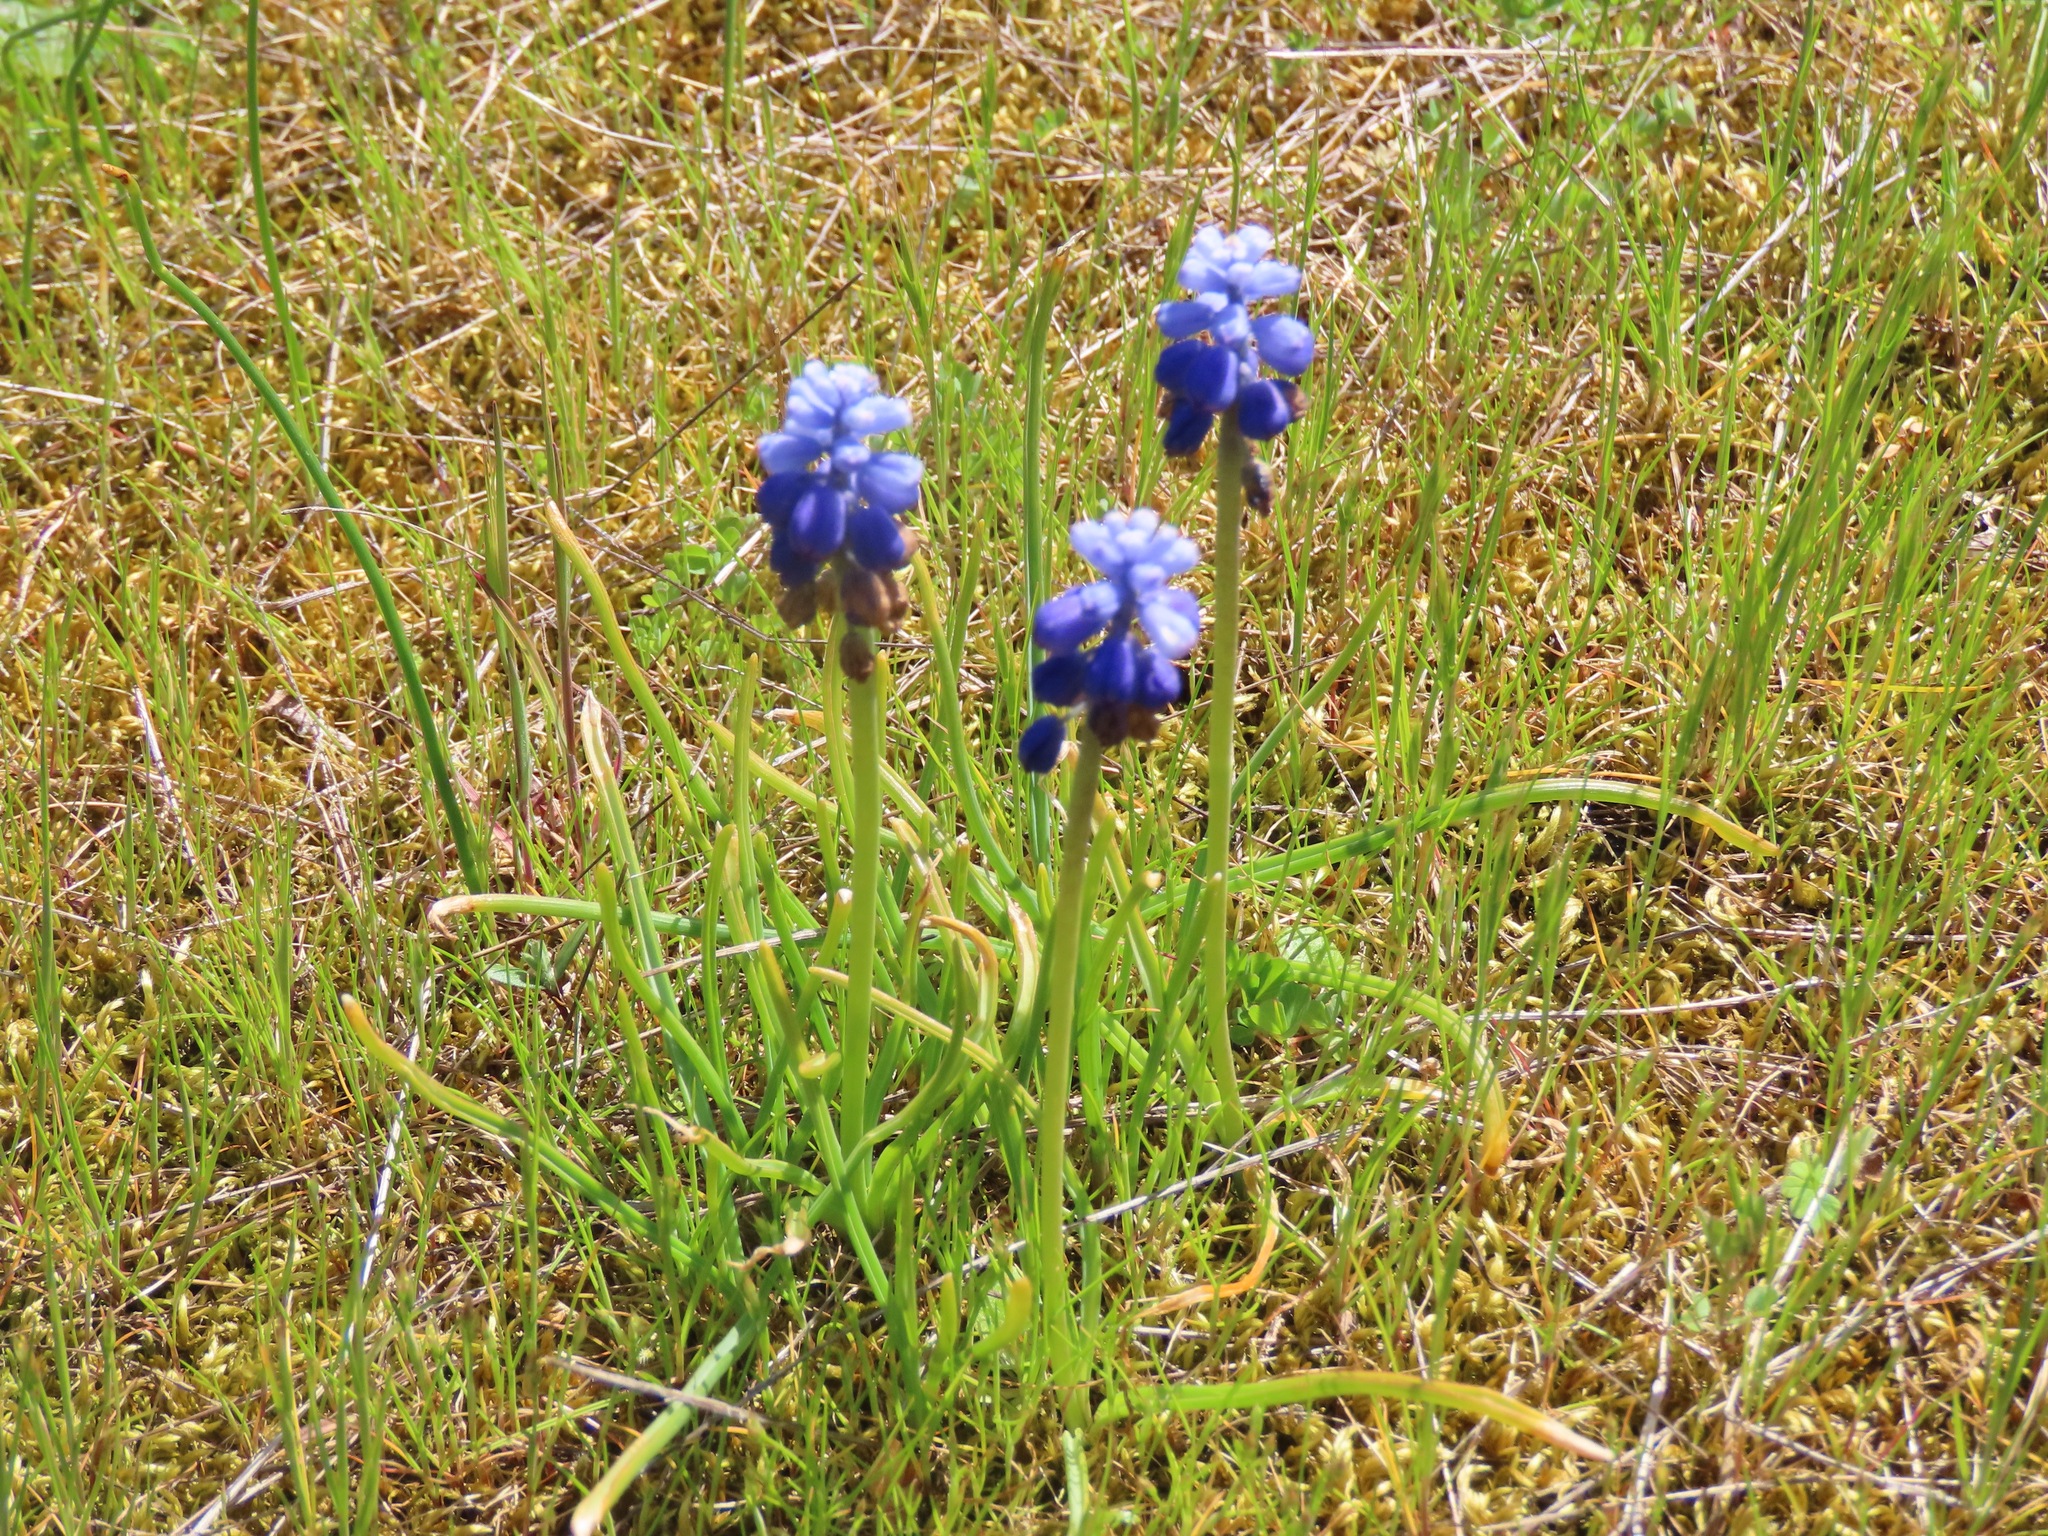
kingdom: Plantae
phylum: Tracheophyta
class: Liliopsida
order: Asparagales
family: Asparagaceae
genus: Muscari
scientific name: Muscari neglectum
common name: Grape-hyacinth
